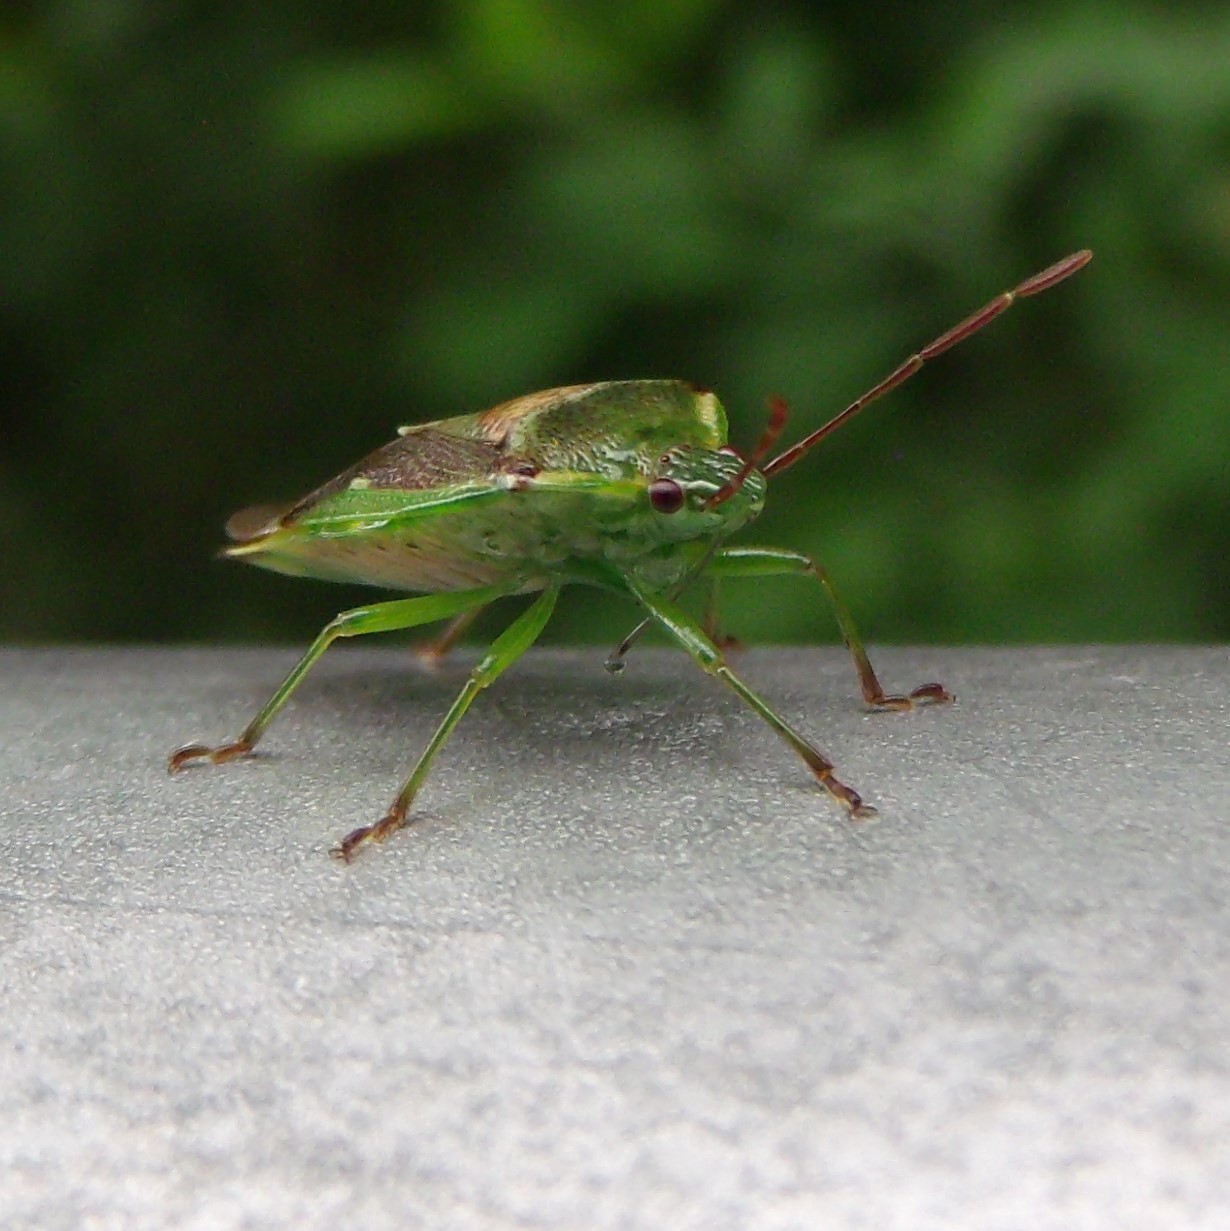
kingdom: Animalia
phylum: Arthropoda
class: Insecta
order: Hemiptera
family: Acanthosomatidae
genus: Oncacontias
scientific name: Oncacontias vittatus
